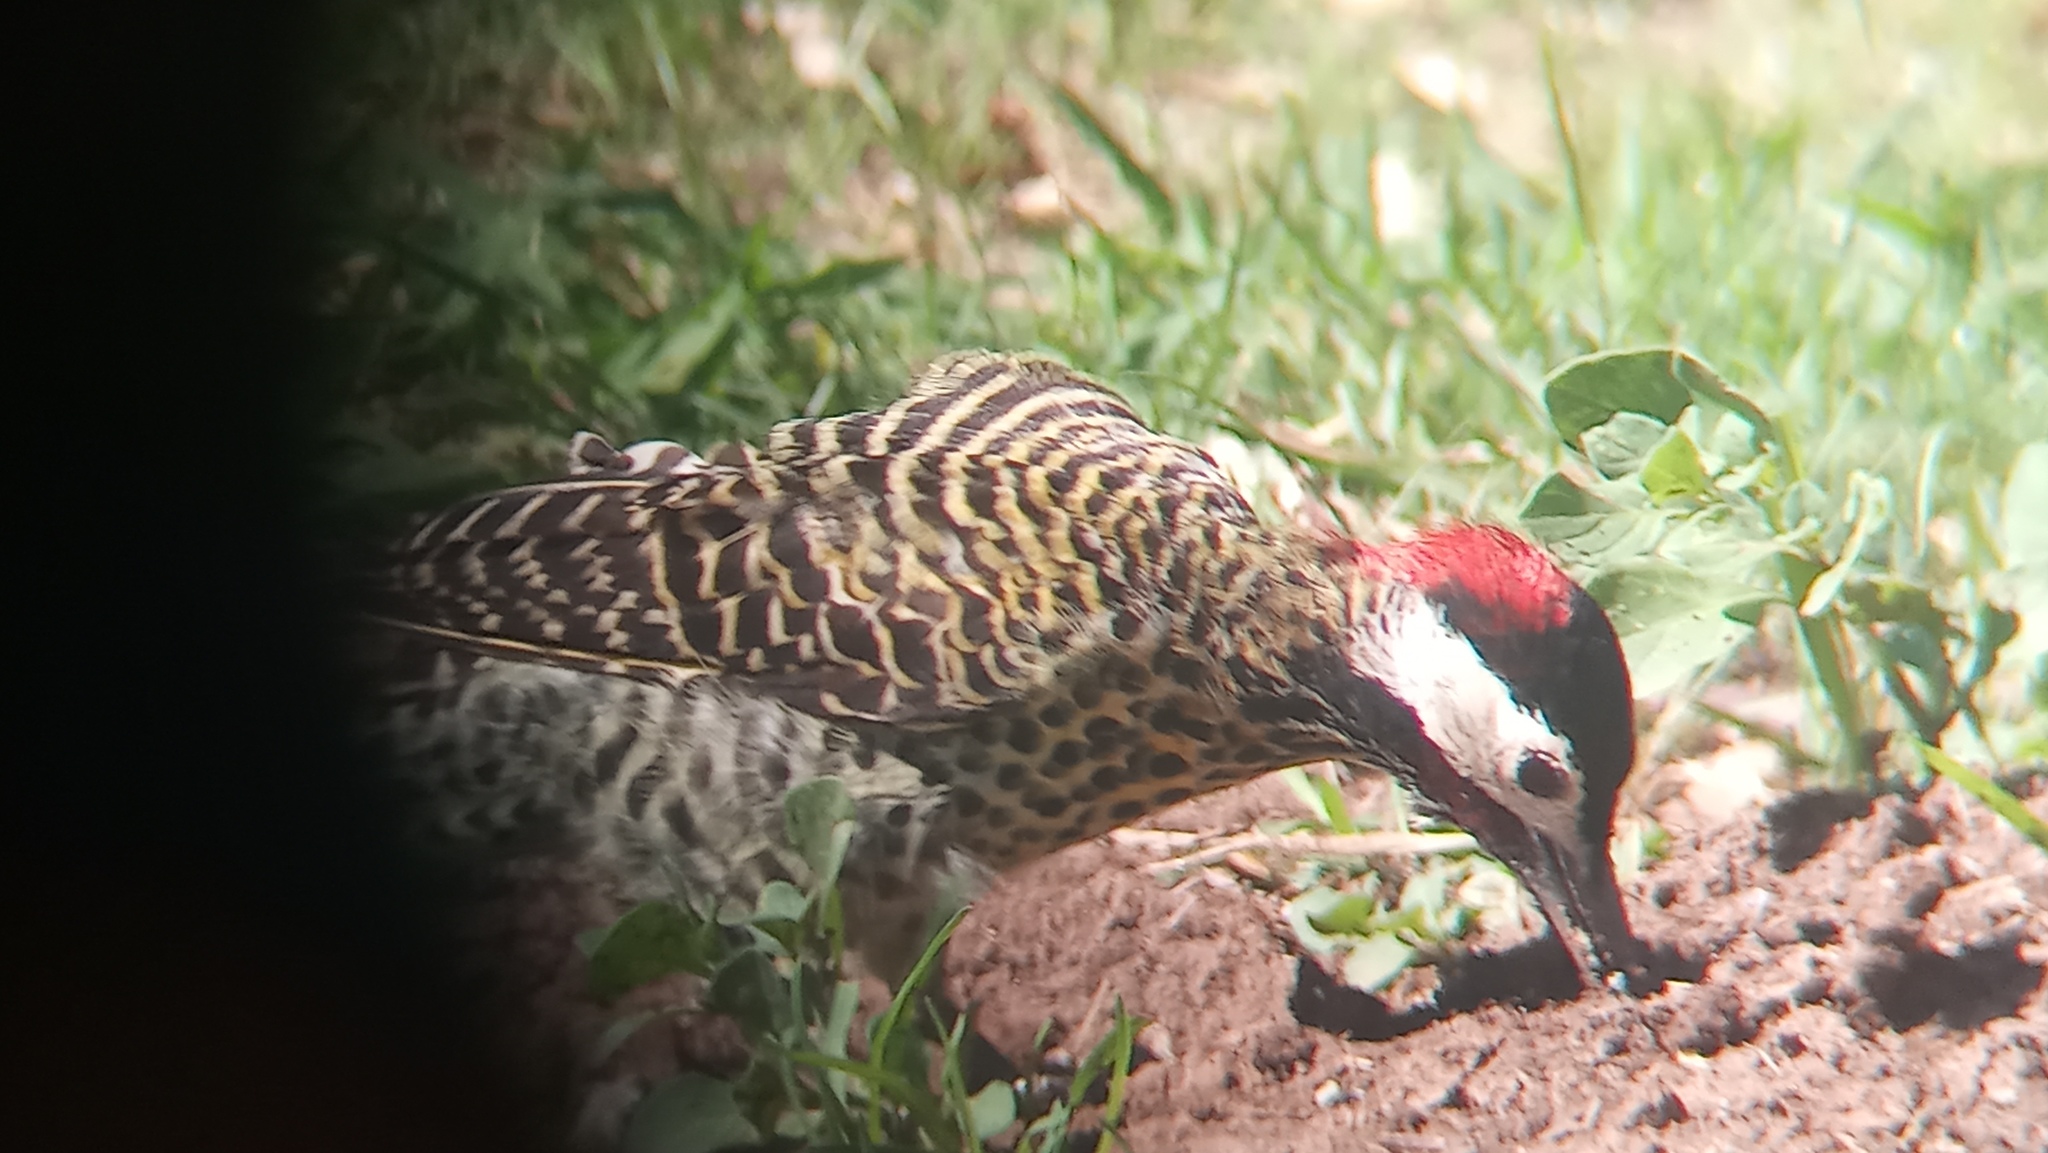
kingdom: Animalia
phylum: Chordata
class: Aves
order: Piciformes
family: Picidae
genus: Colaptes
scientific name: Colaptes melanochloros
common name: Green-barred woodpecker
